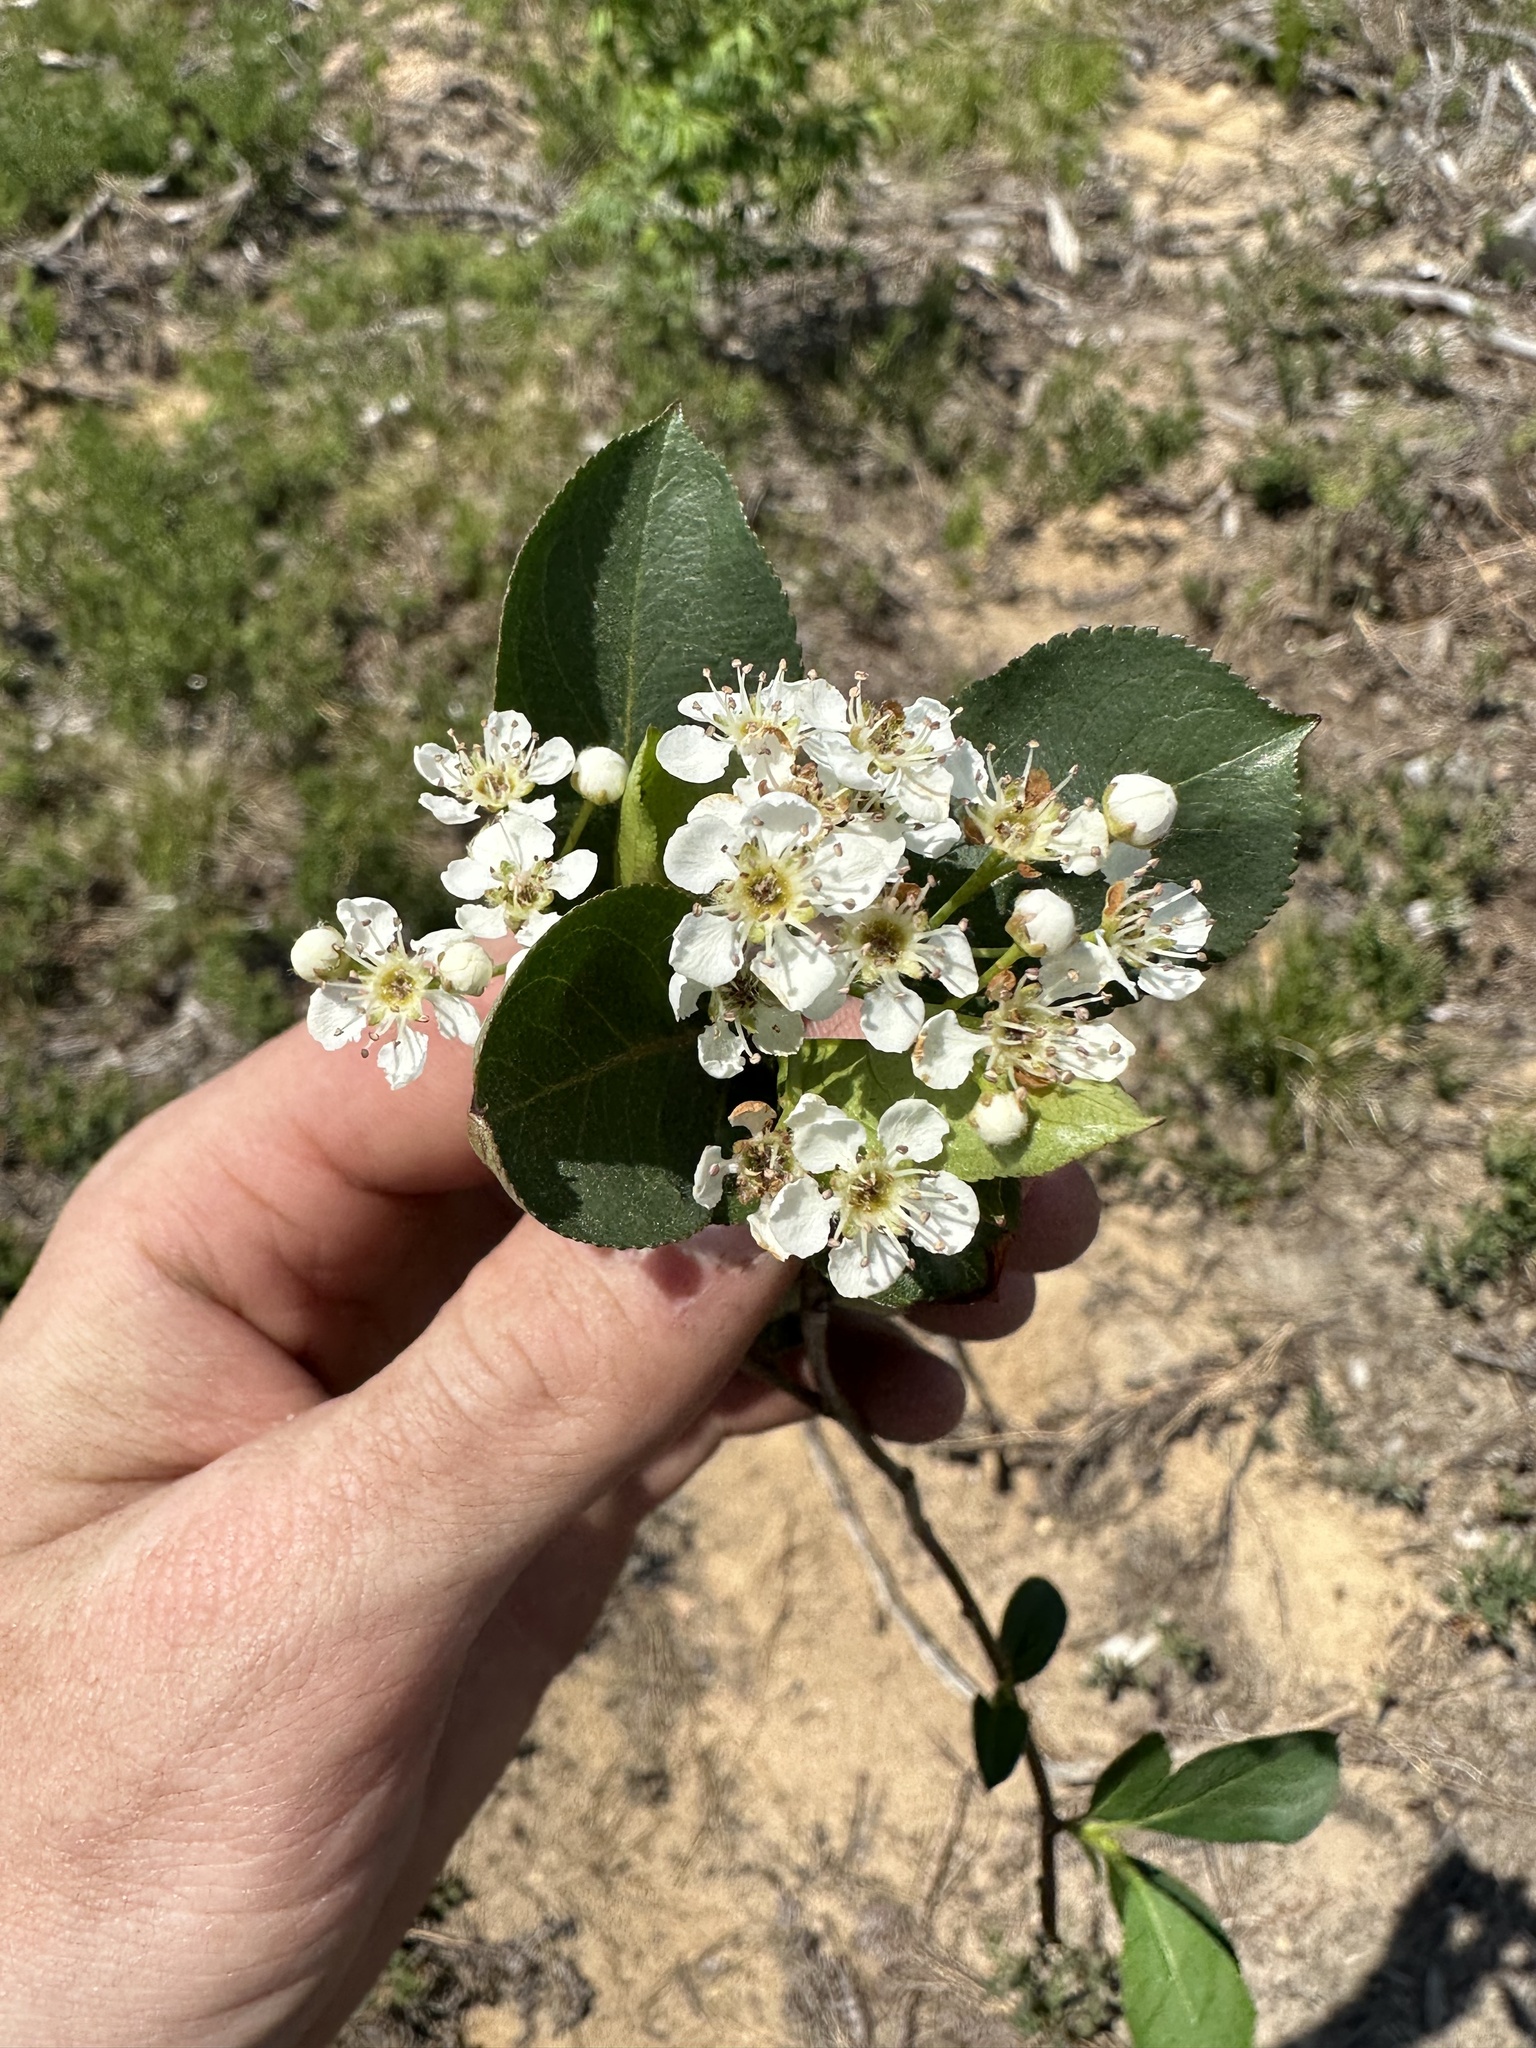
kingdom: Plantae
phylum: Tracheophyta
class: Magnoliopsida
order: Rosales
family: Rosaceae
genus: Aronia
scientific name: Aronia melanocarpa
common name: Black chokeberry
